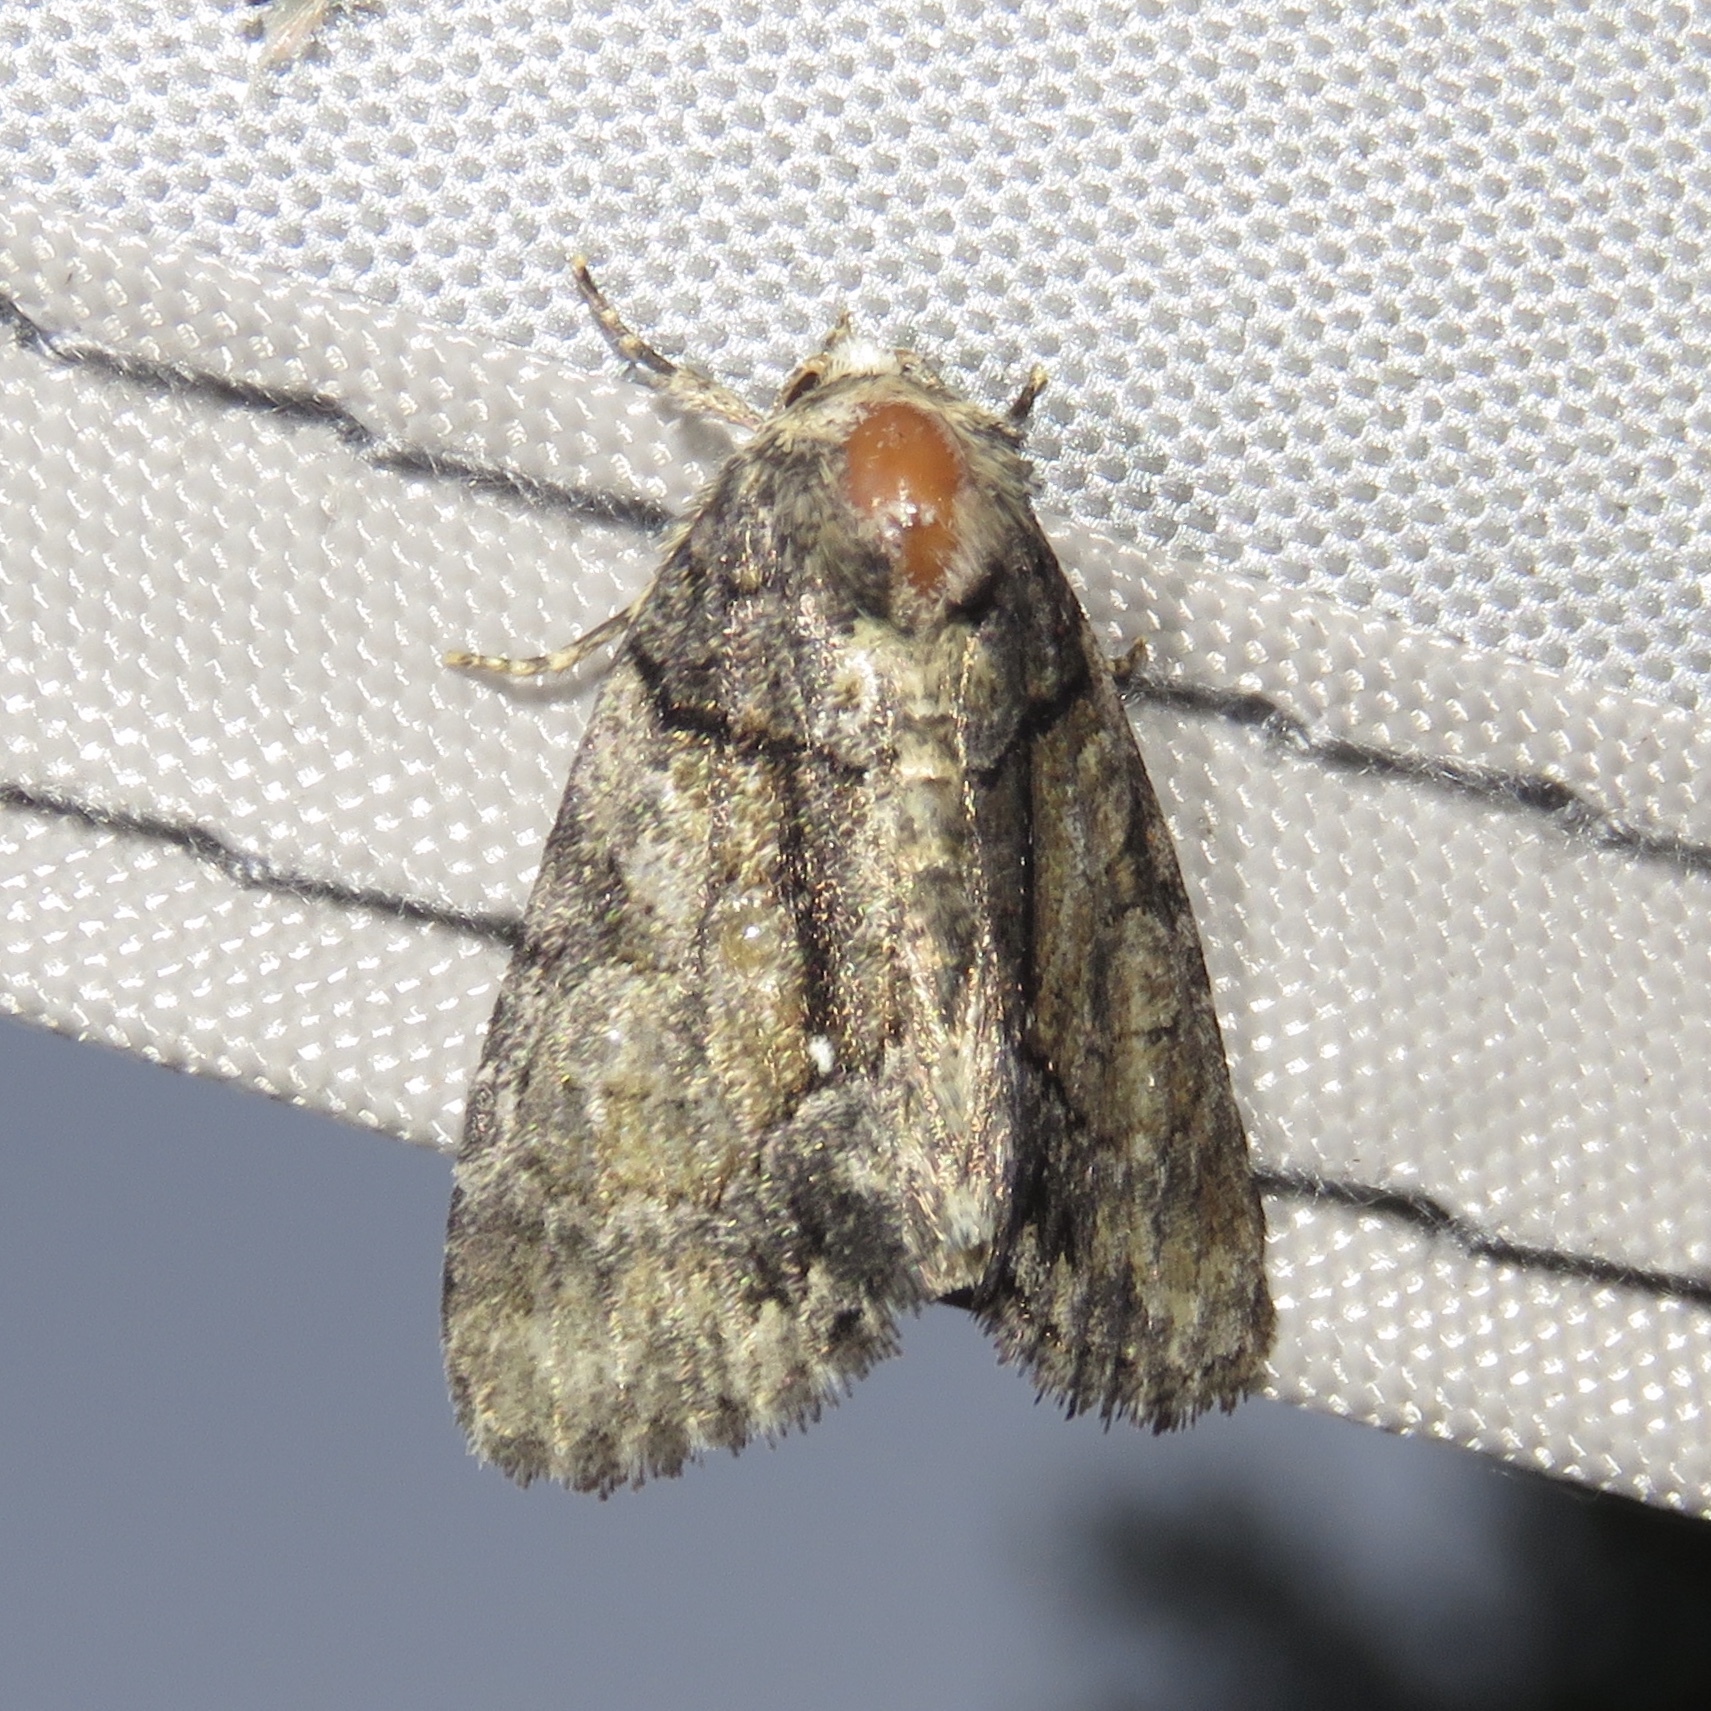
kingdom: Animalia
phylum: Arthropoda
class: Insecta
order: Lepidoptera
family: Noctuidae
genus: Chytonix
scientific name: Chytonix palliatricula
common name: Cloaked marvel
